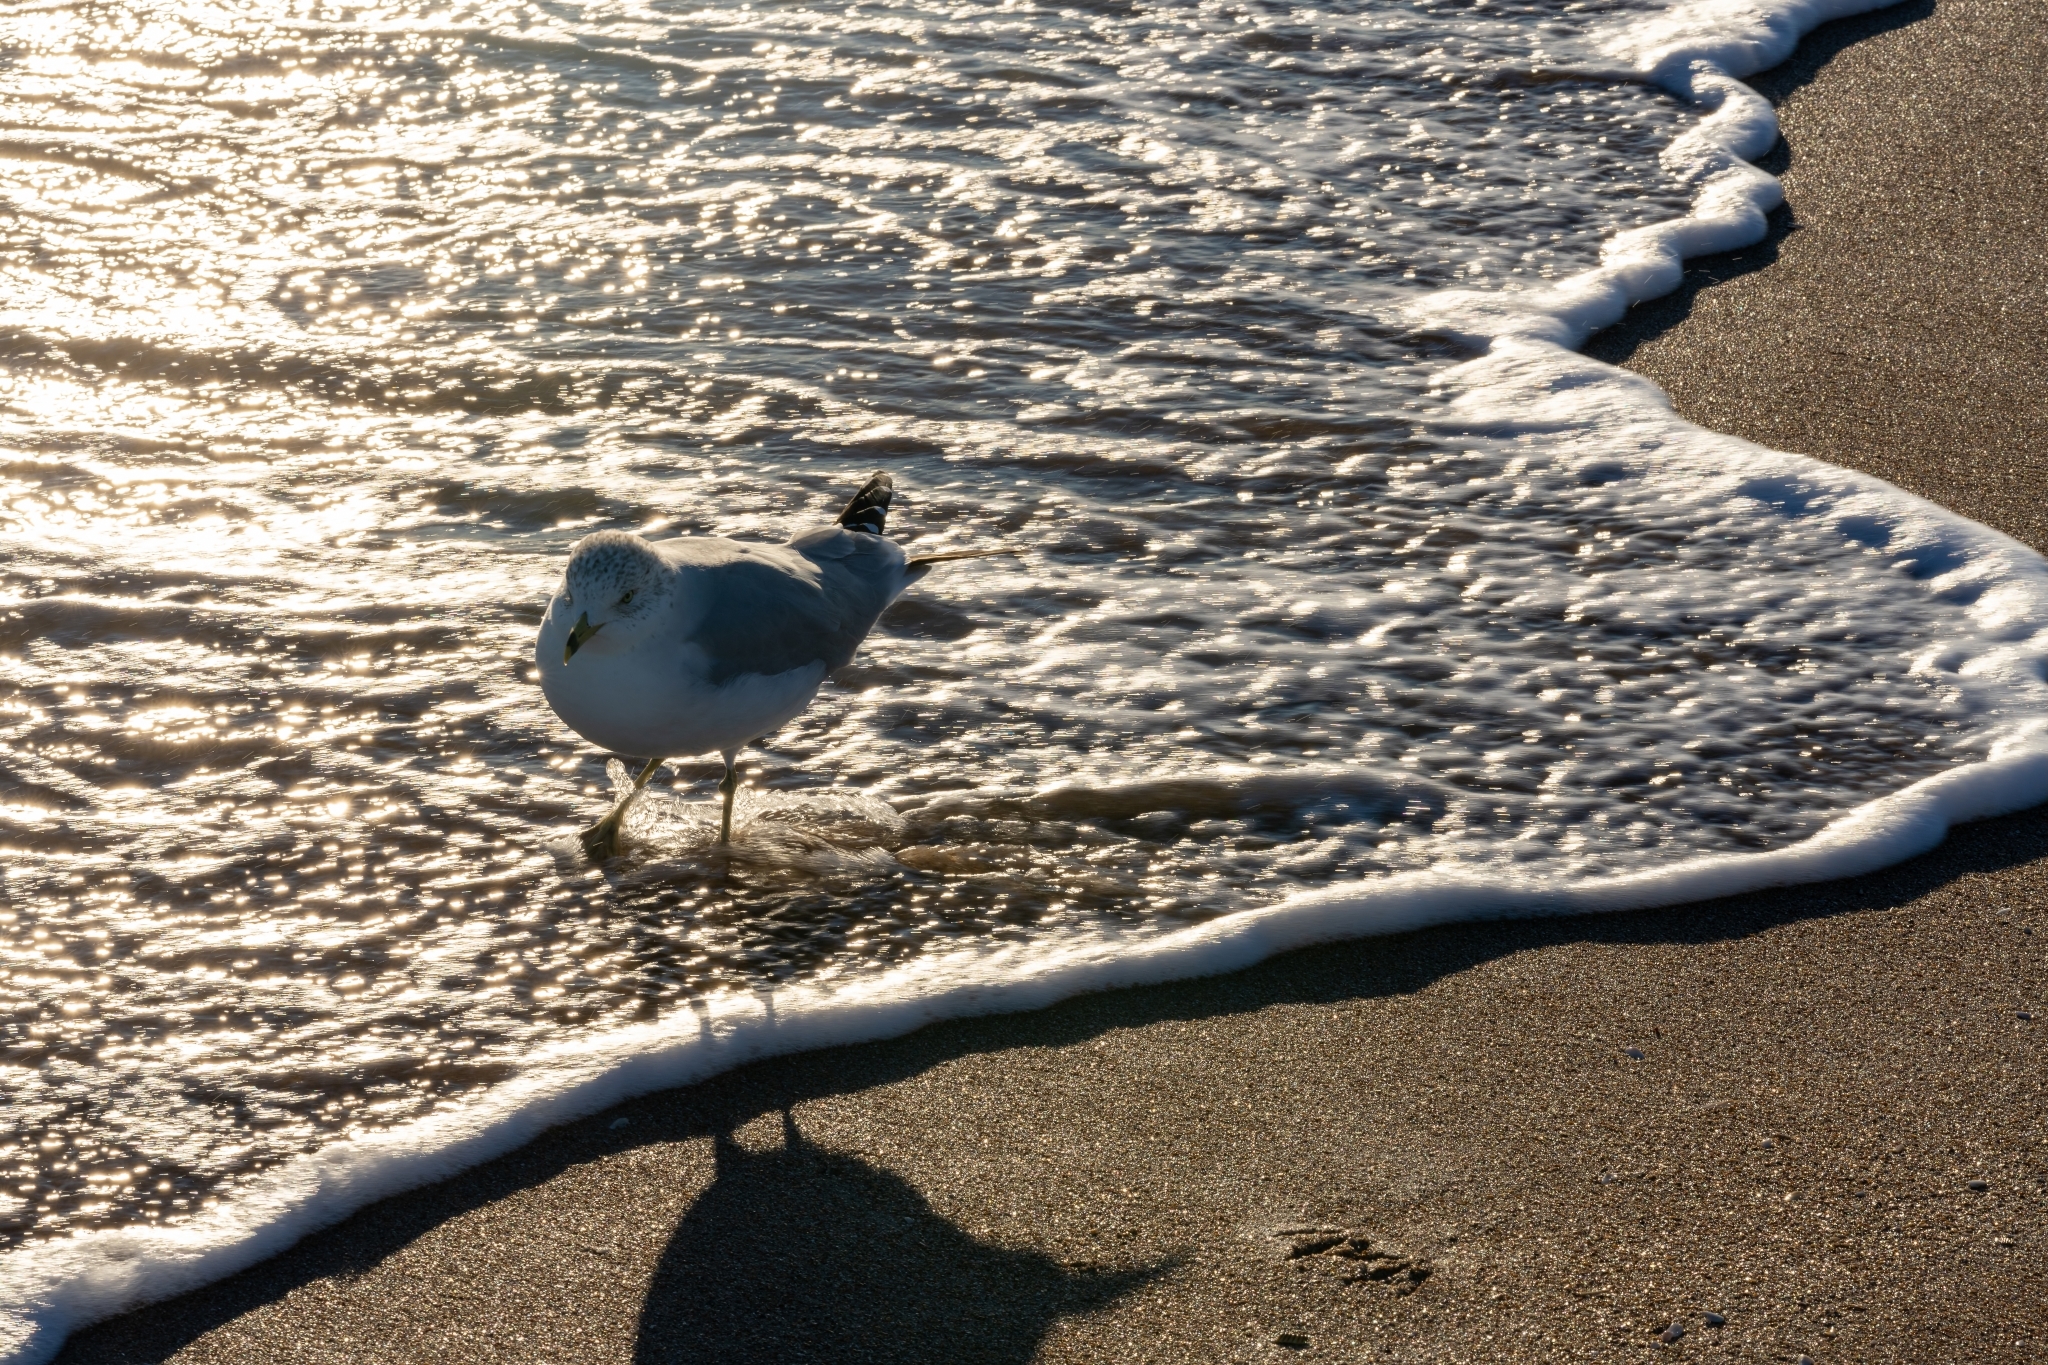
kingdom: Animalia
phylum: Chordata
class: Aves
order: Charadriiformes
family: Laridae
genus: Larus
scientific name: Larus delawarensis
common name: Ring-billed gull
